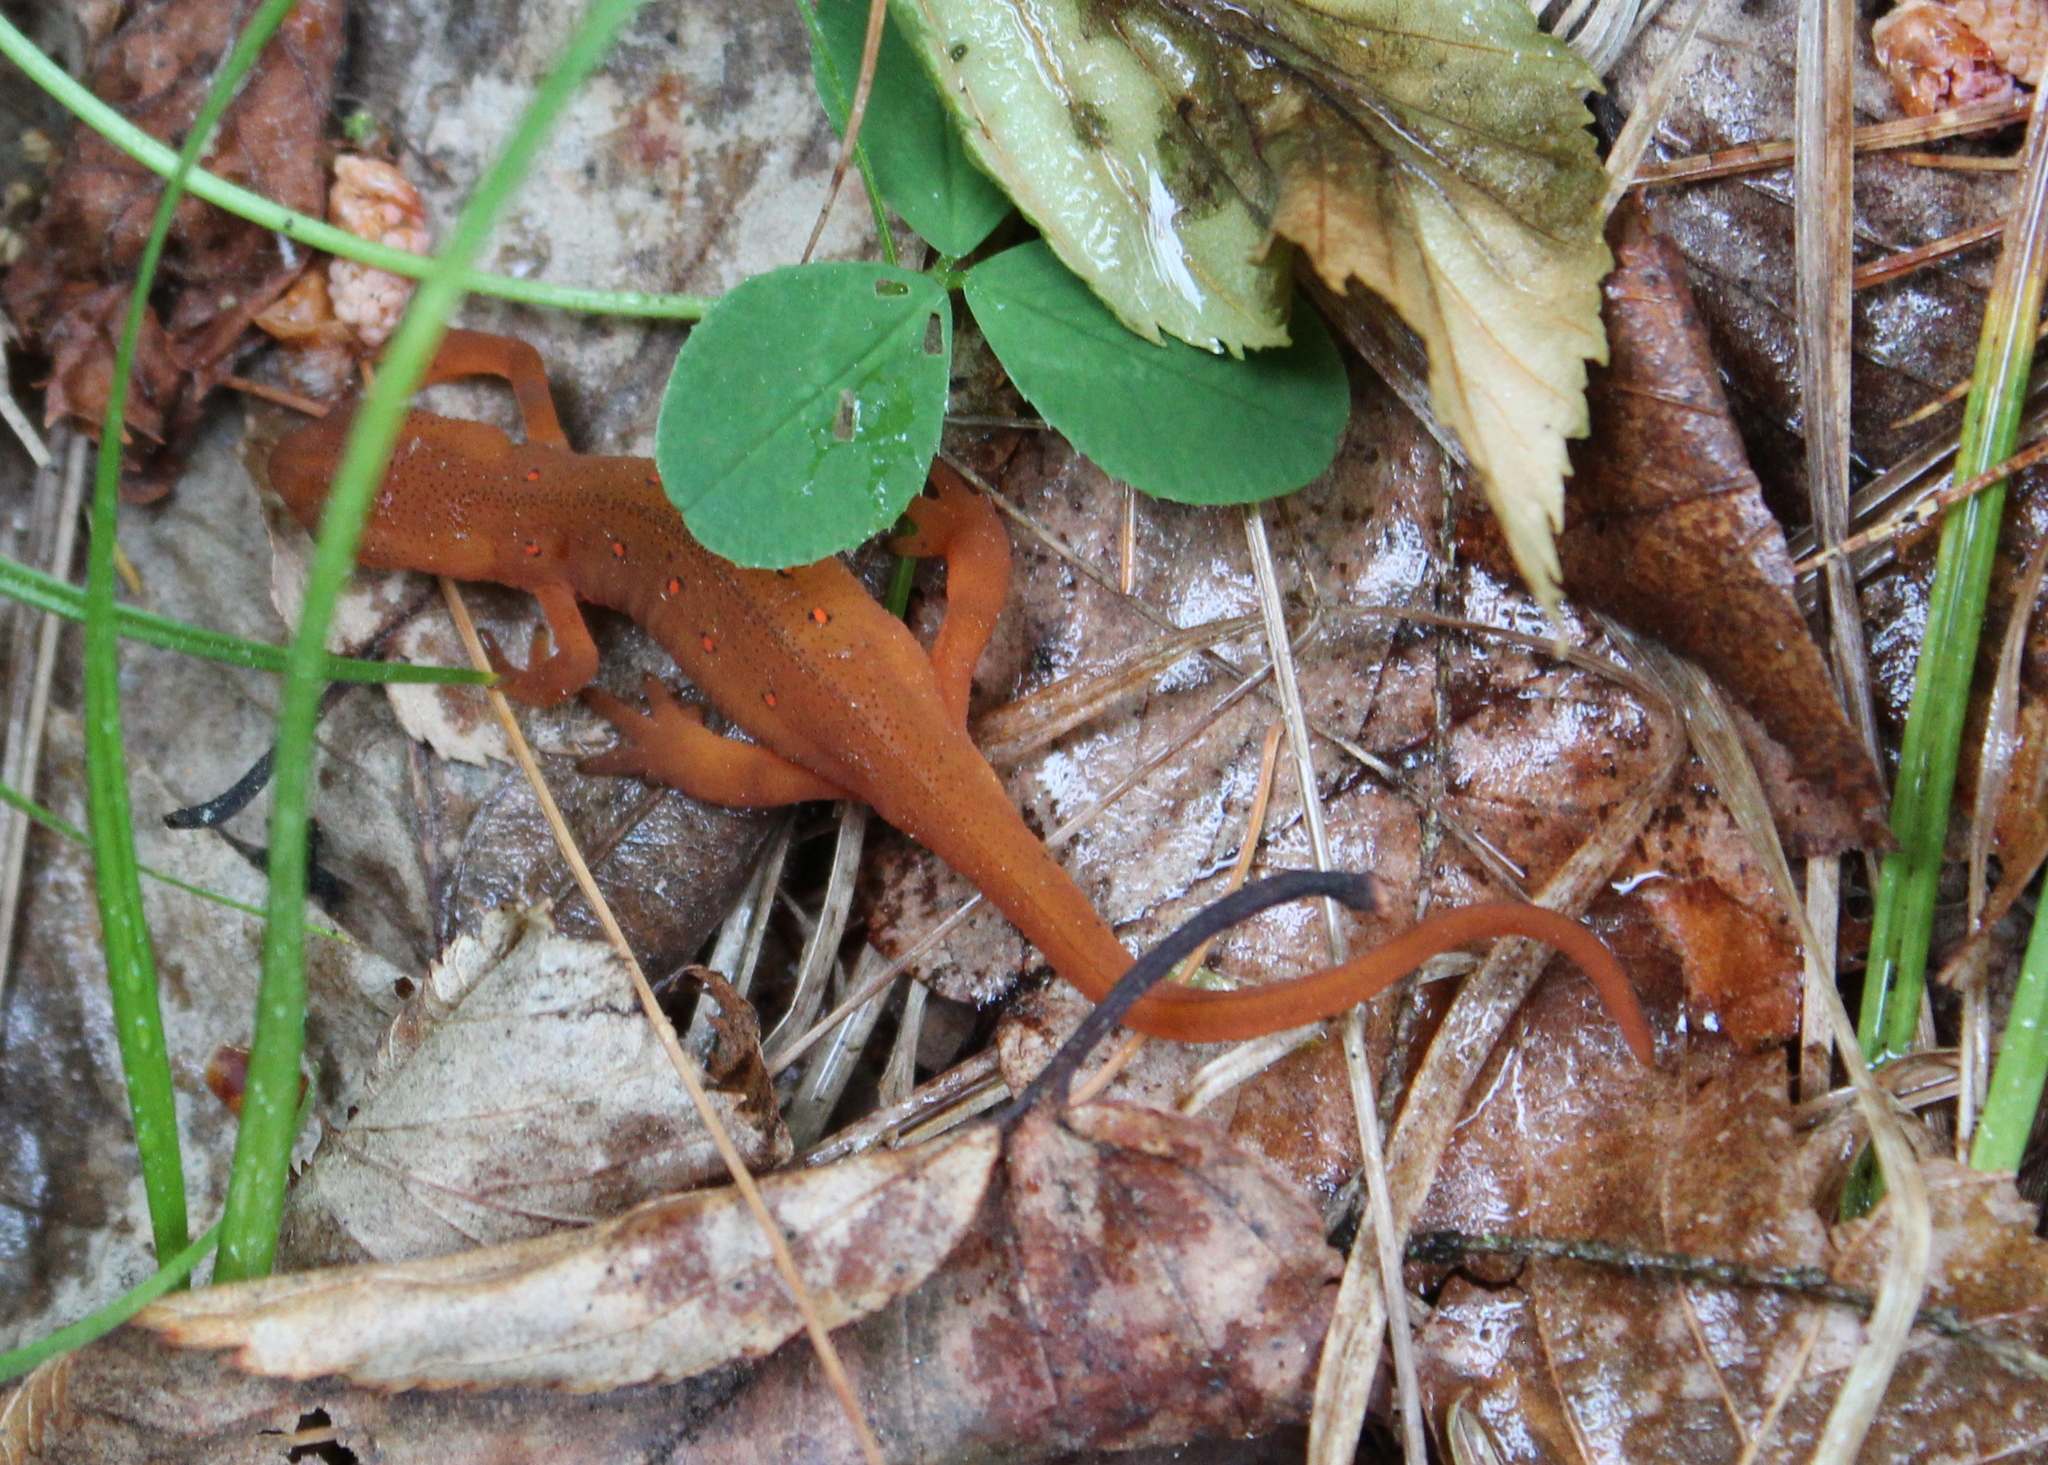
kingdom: Animalia
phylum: Chordata
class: Amphibia
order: Caudata
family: Salamandridae
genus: Notophthalmus
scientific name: Notophthalmus viridescens
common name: Eastern newt
